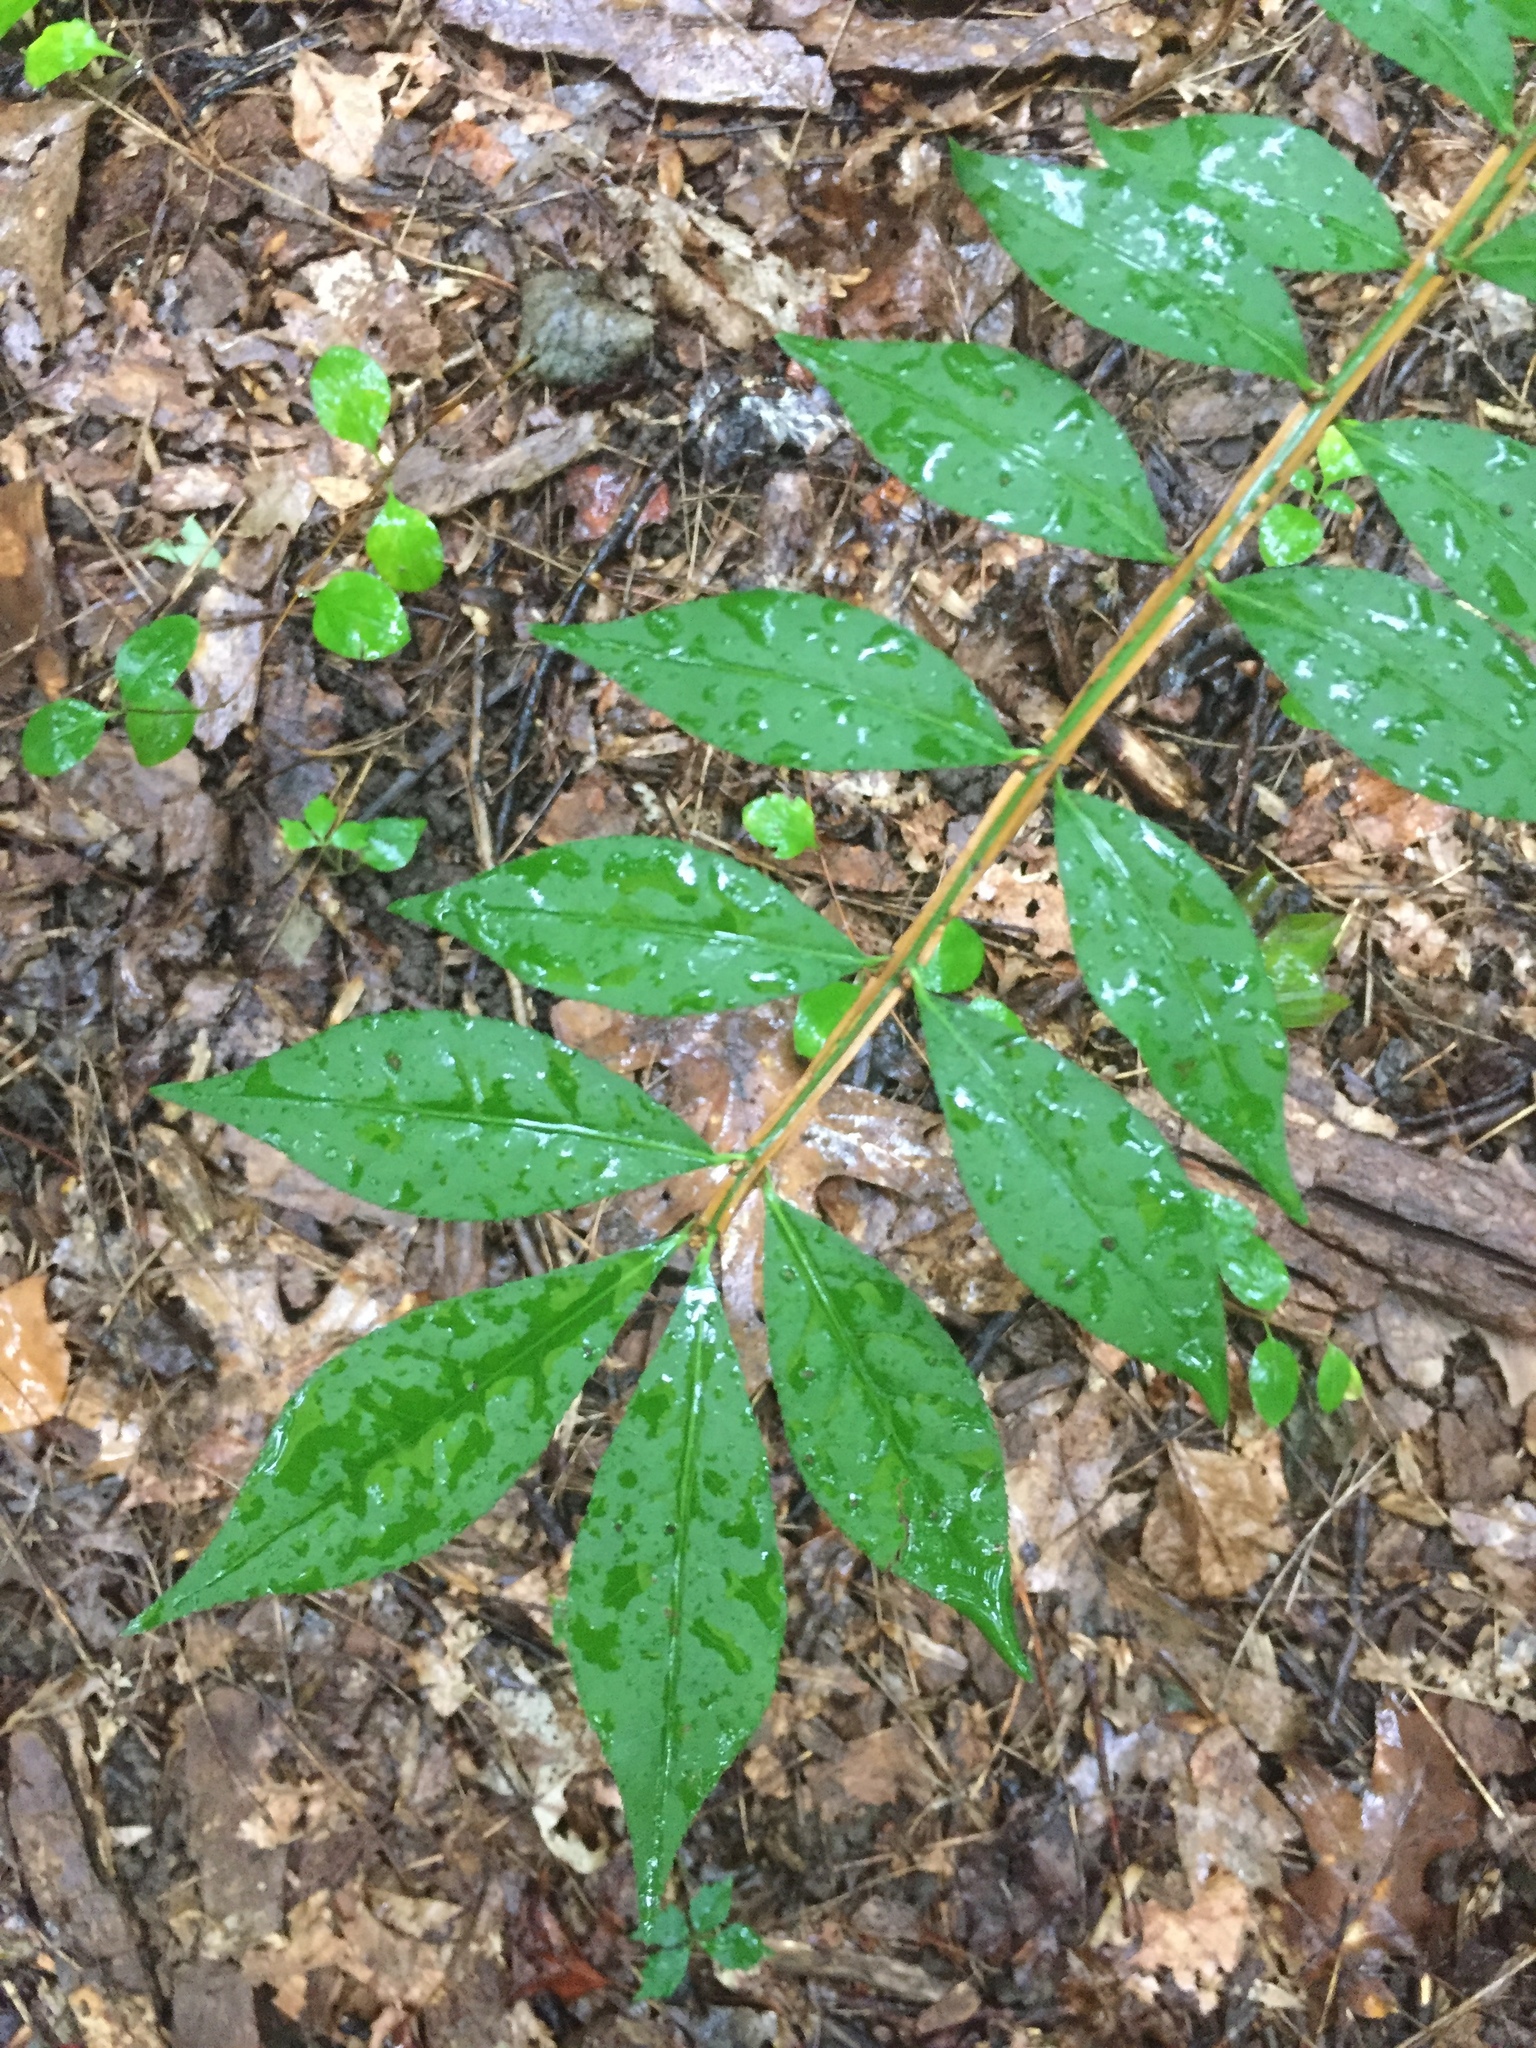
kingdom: Plantae
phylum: Tracheophyta
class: Magnoliopsida
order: Celastrales
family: Celastraceae
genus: Euonymus
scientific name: Euonymus alatus
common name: Winged euonymus
